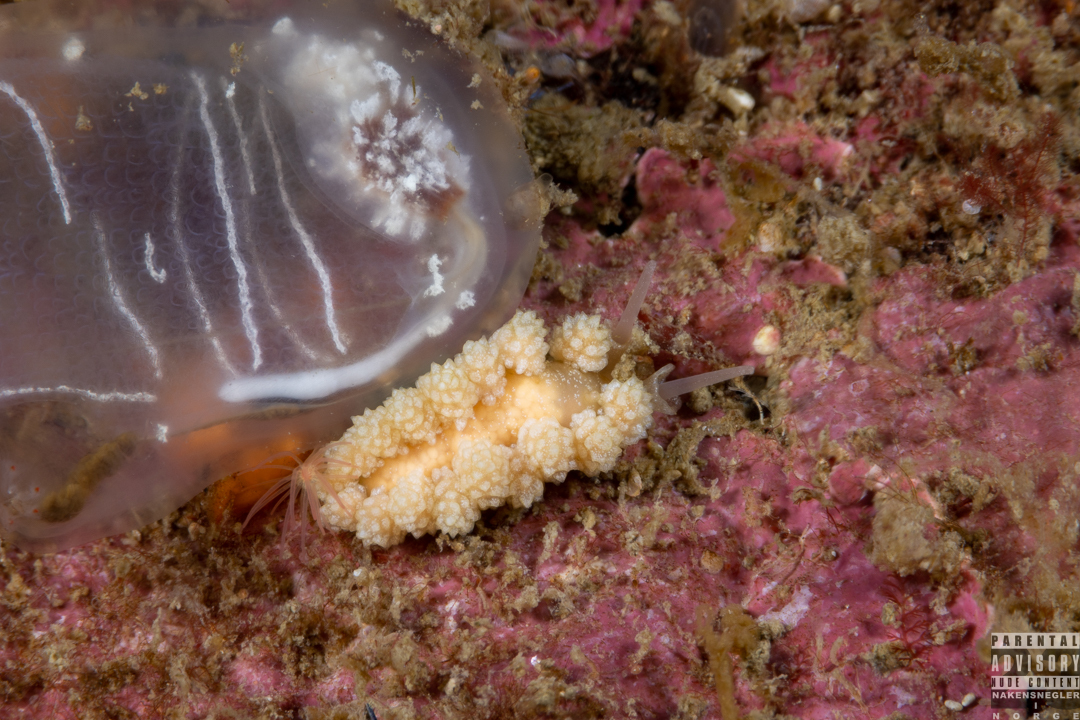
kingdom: Animalia
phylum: Mollusca
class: Gastropoda
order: Nudibranchia
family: Dotidae
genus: Doto
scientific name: Doto fragilis
